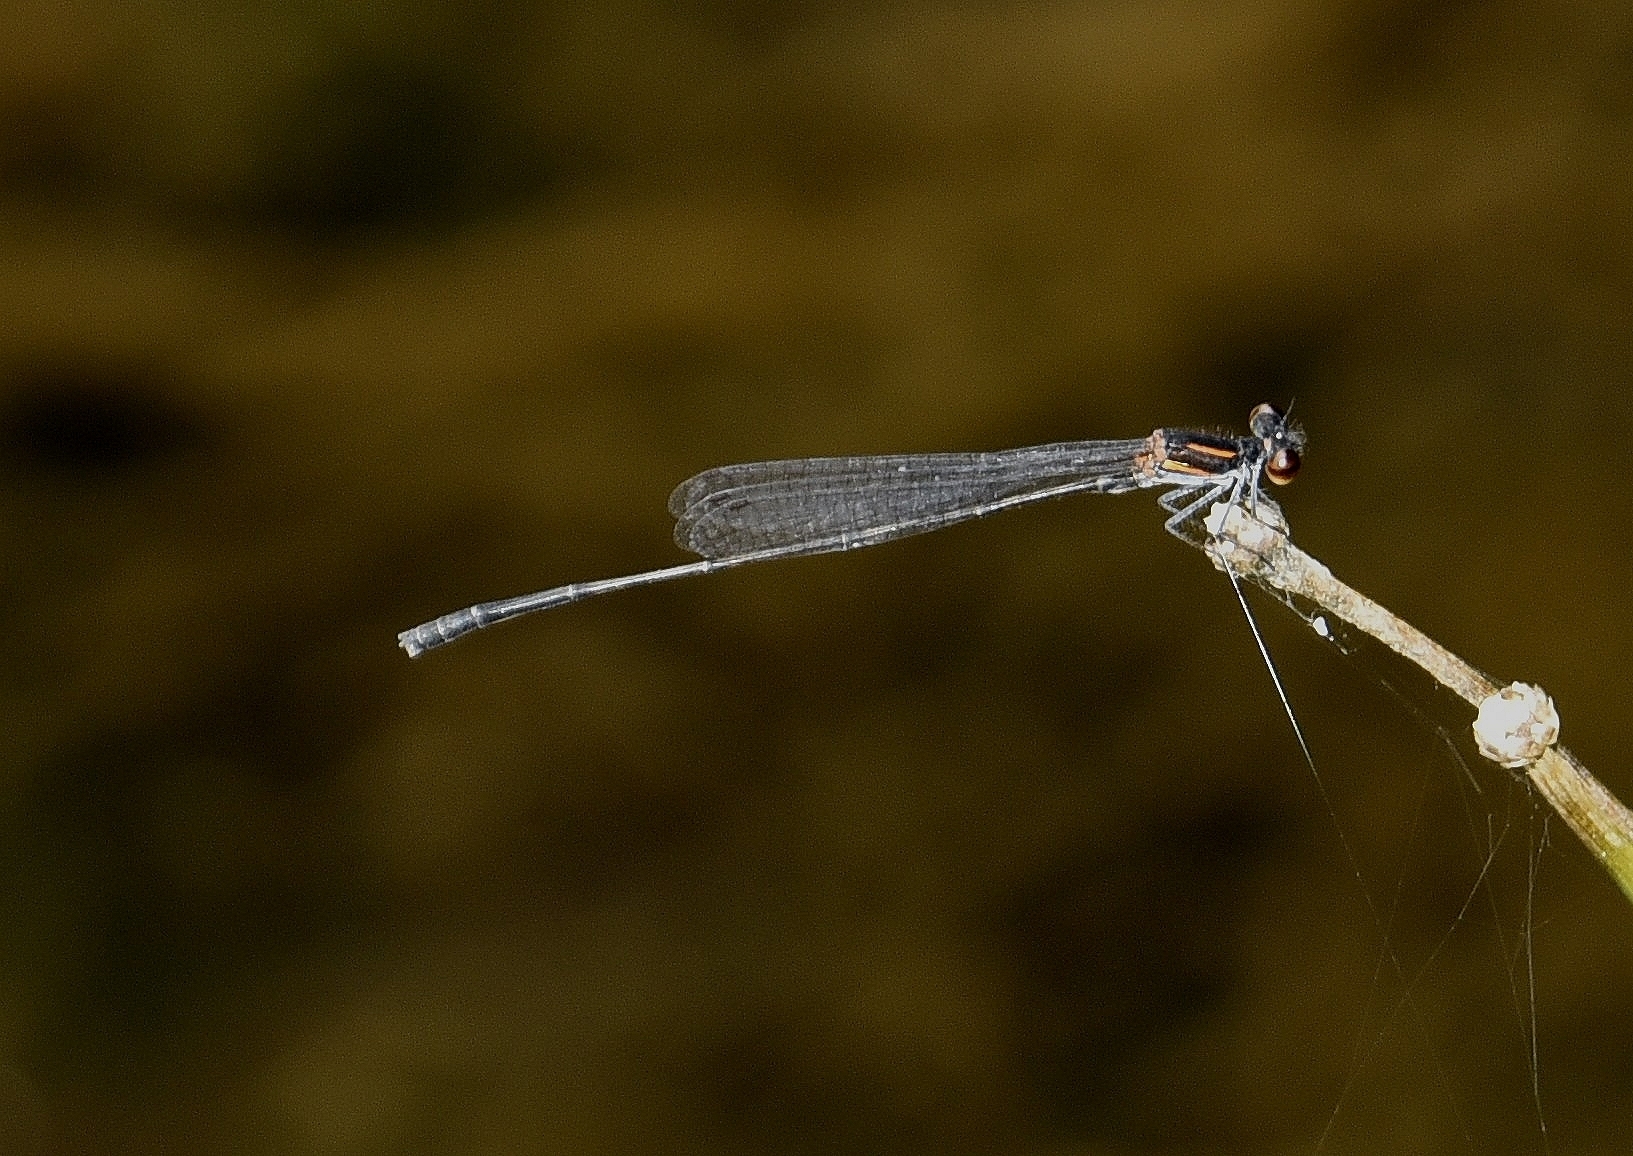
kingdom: Animalia
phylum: Arthropoda
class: Insecta
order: Odonata
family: Platycnemididae
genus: Prodasineura
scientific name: Prodasineura verticalis
